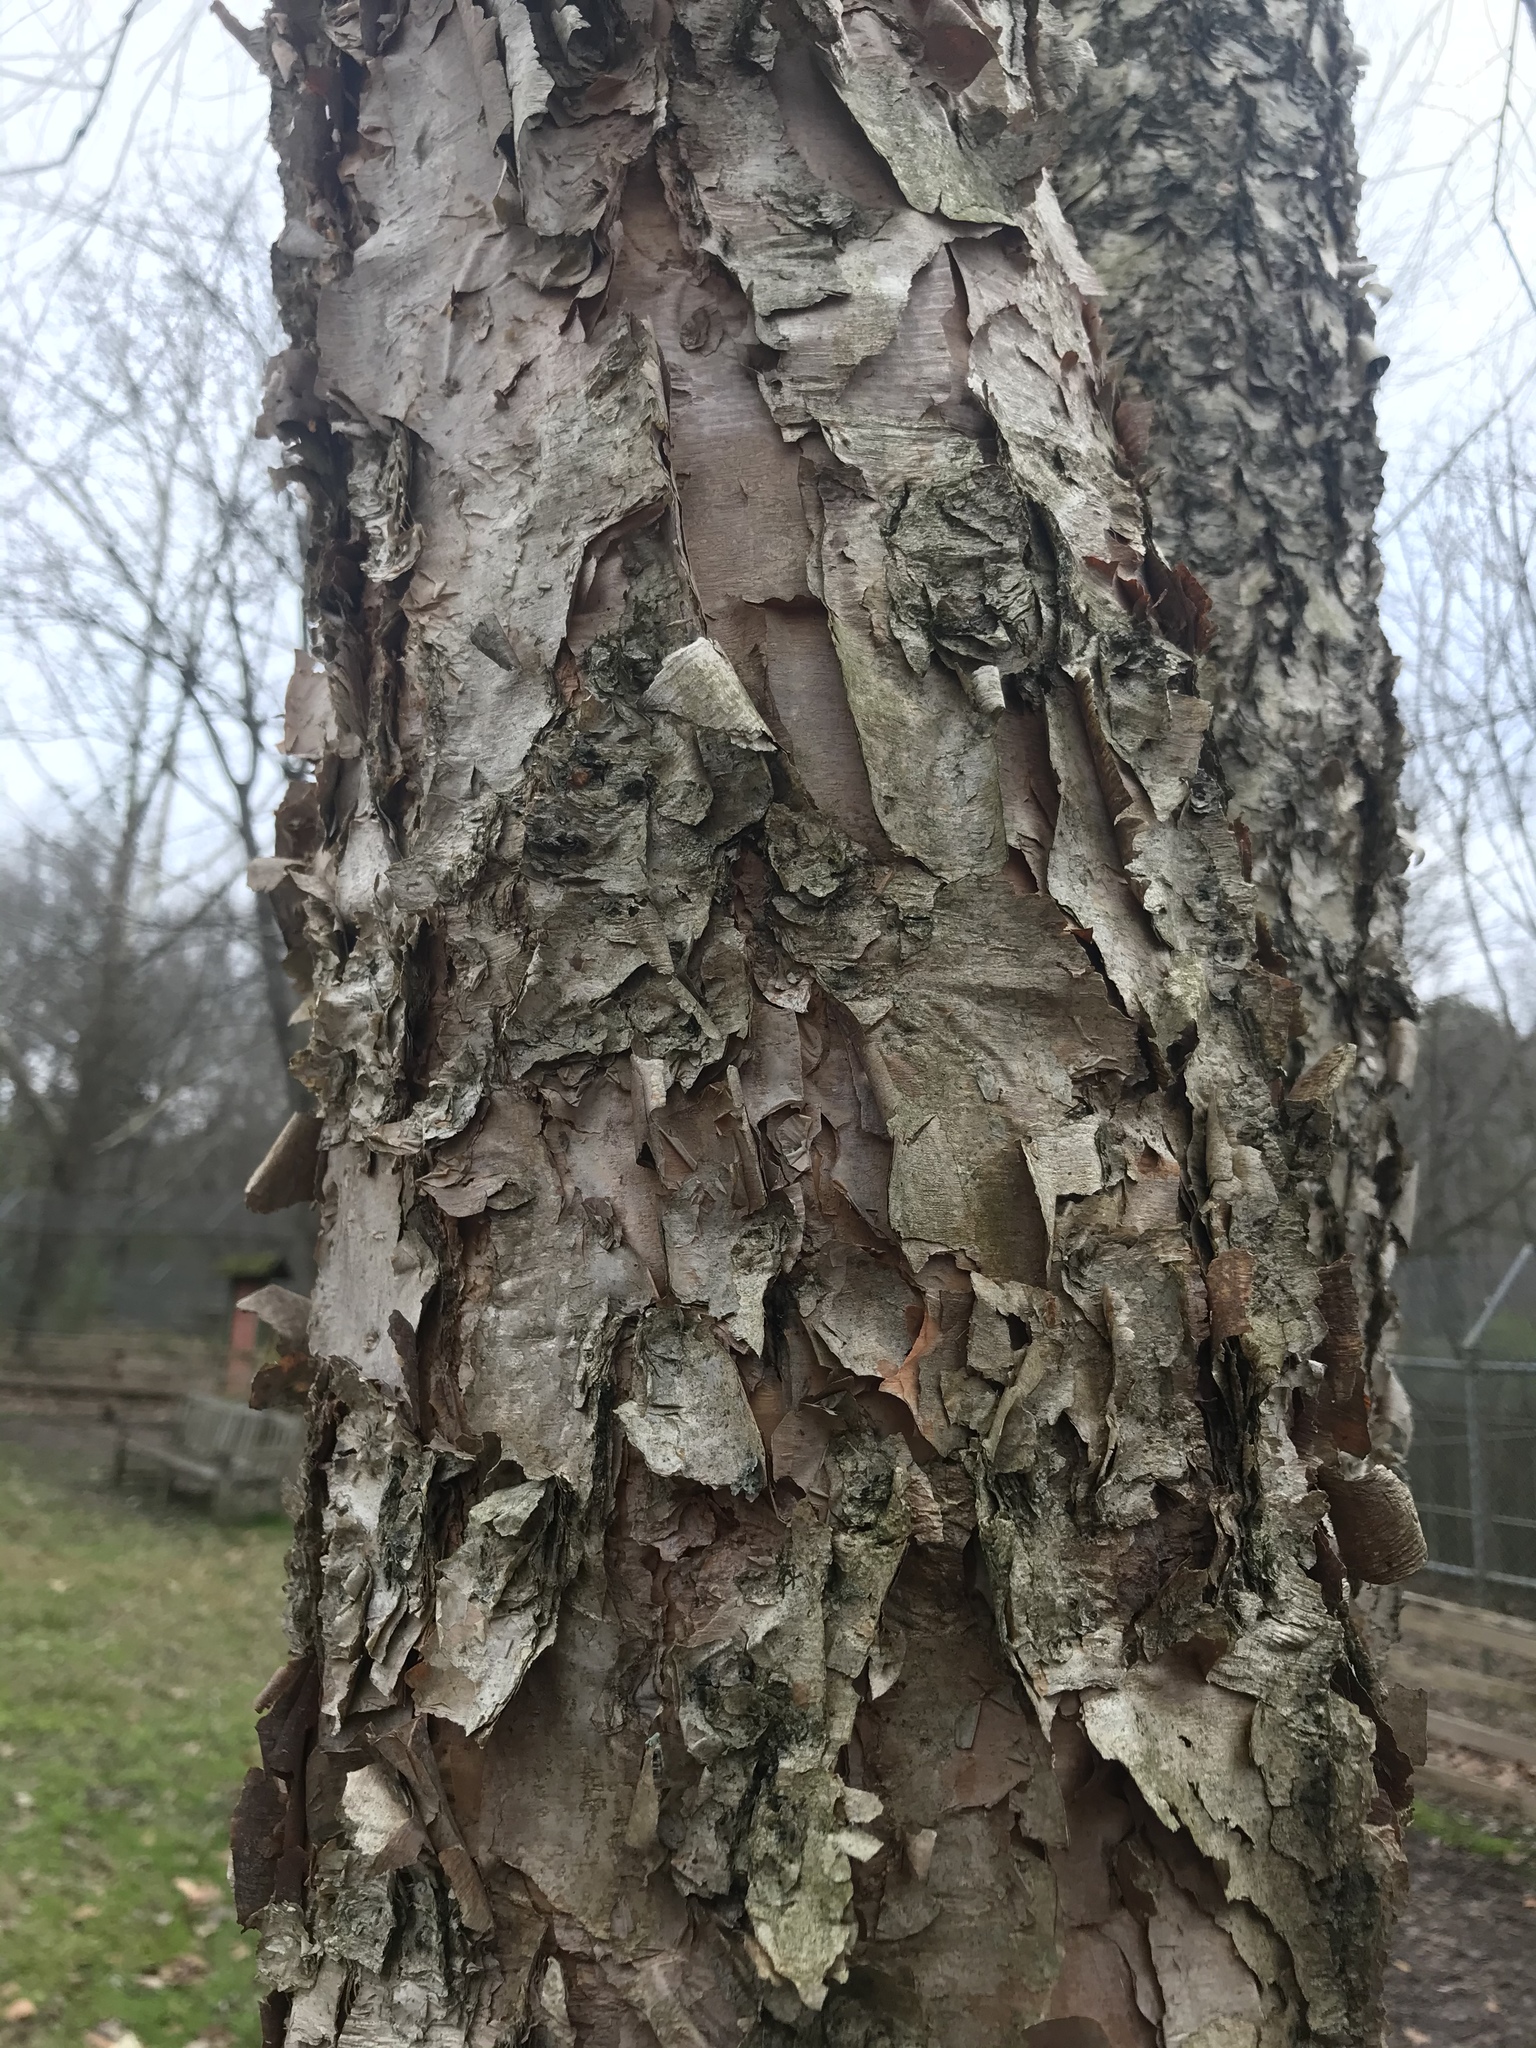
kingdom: Plantae
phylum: Tracheophyta
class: Magnoliopsida
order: Fagales
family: Betulaceae
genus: Betula
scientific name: Betula nigra
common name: Black birch
